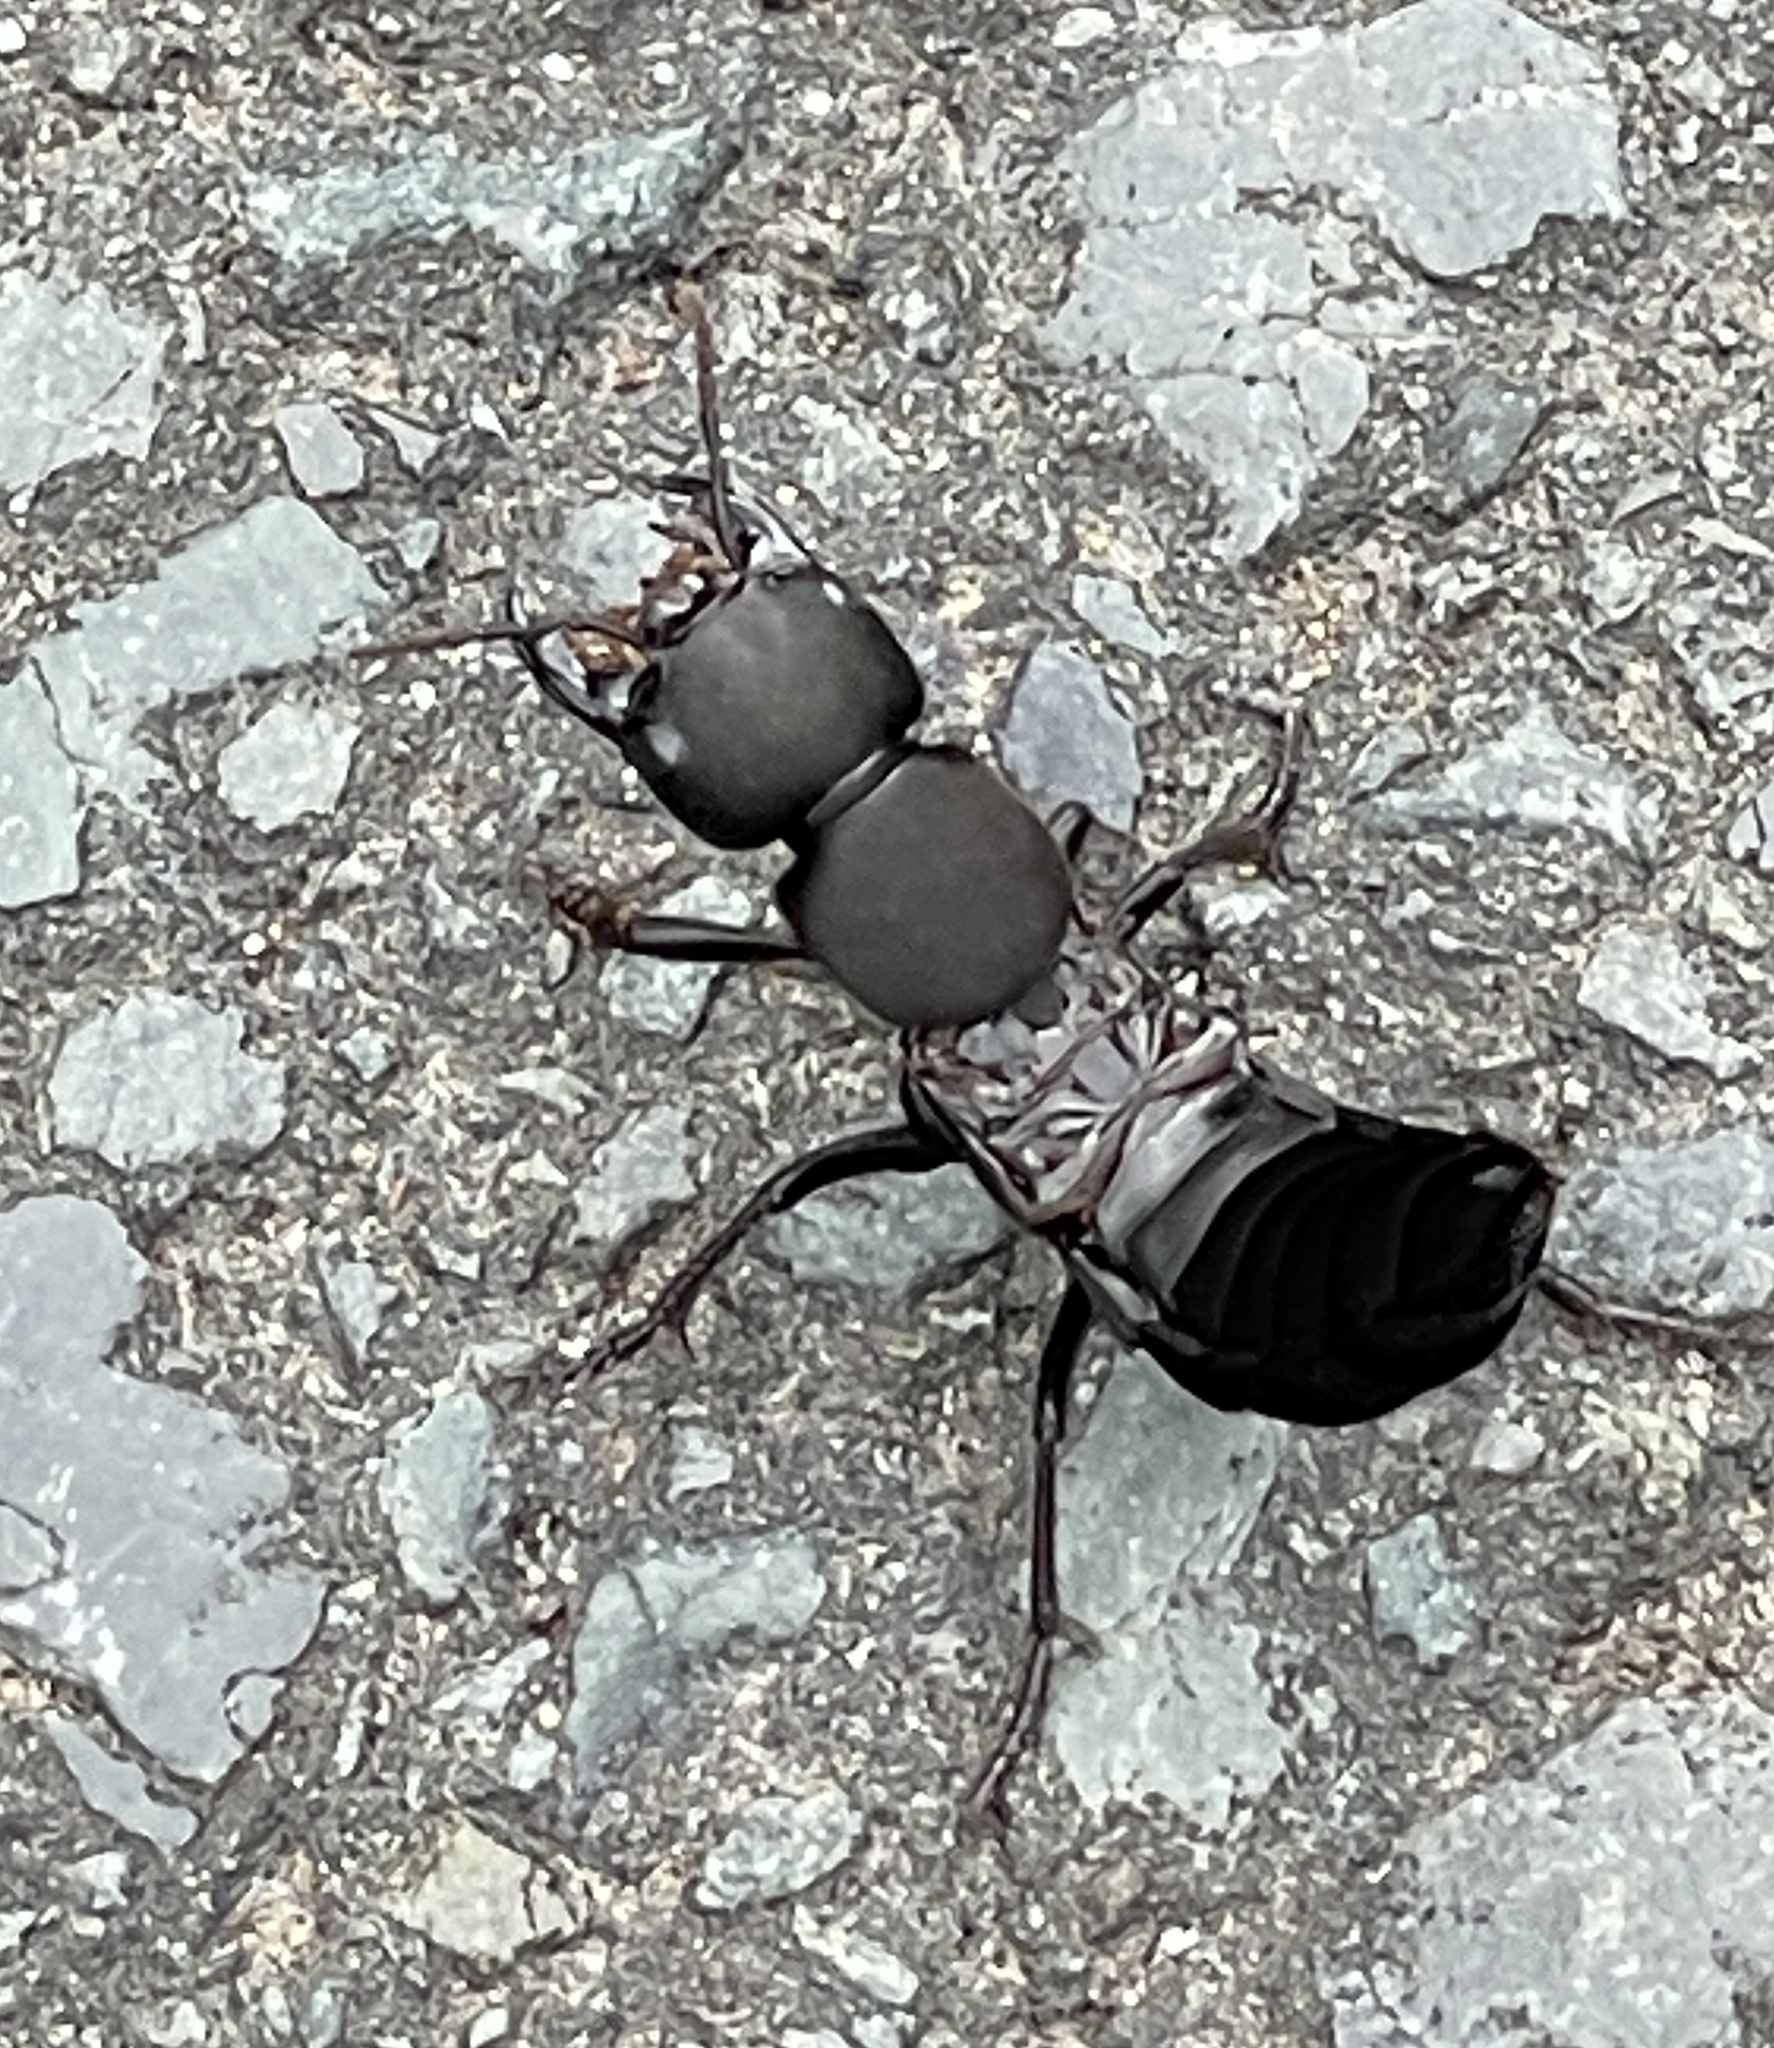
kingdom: Animalia
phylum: Arthropoda
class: Insecta
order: Coleoptera
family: Staphylinidae
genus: Ocypus
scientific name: Ocypus olens
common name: Devil's coach-horse
